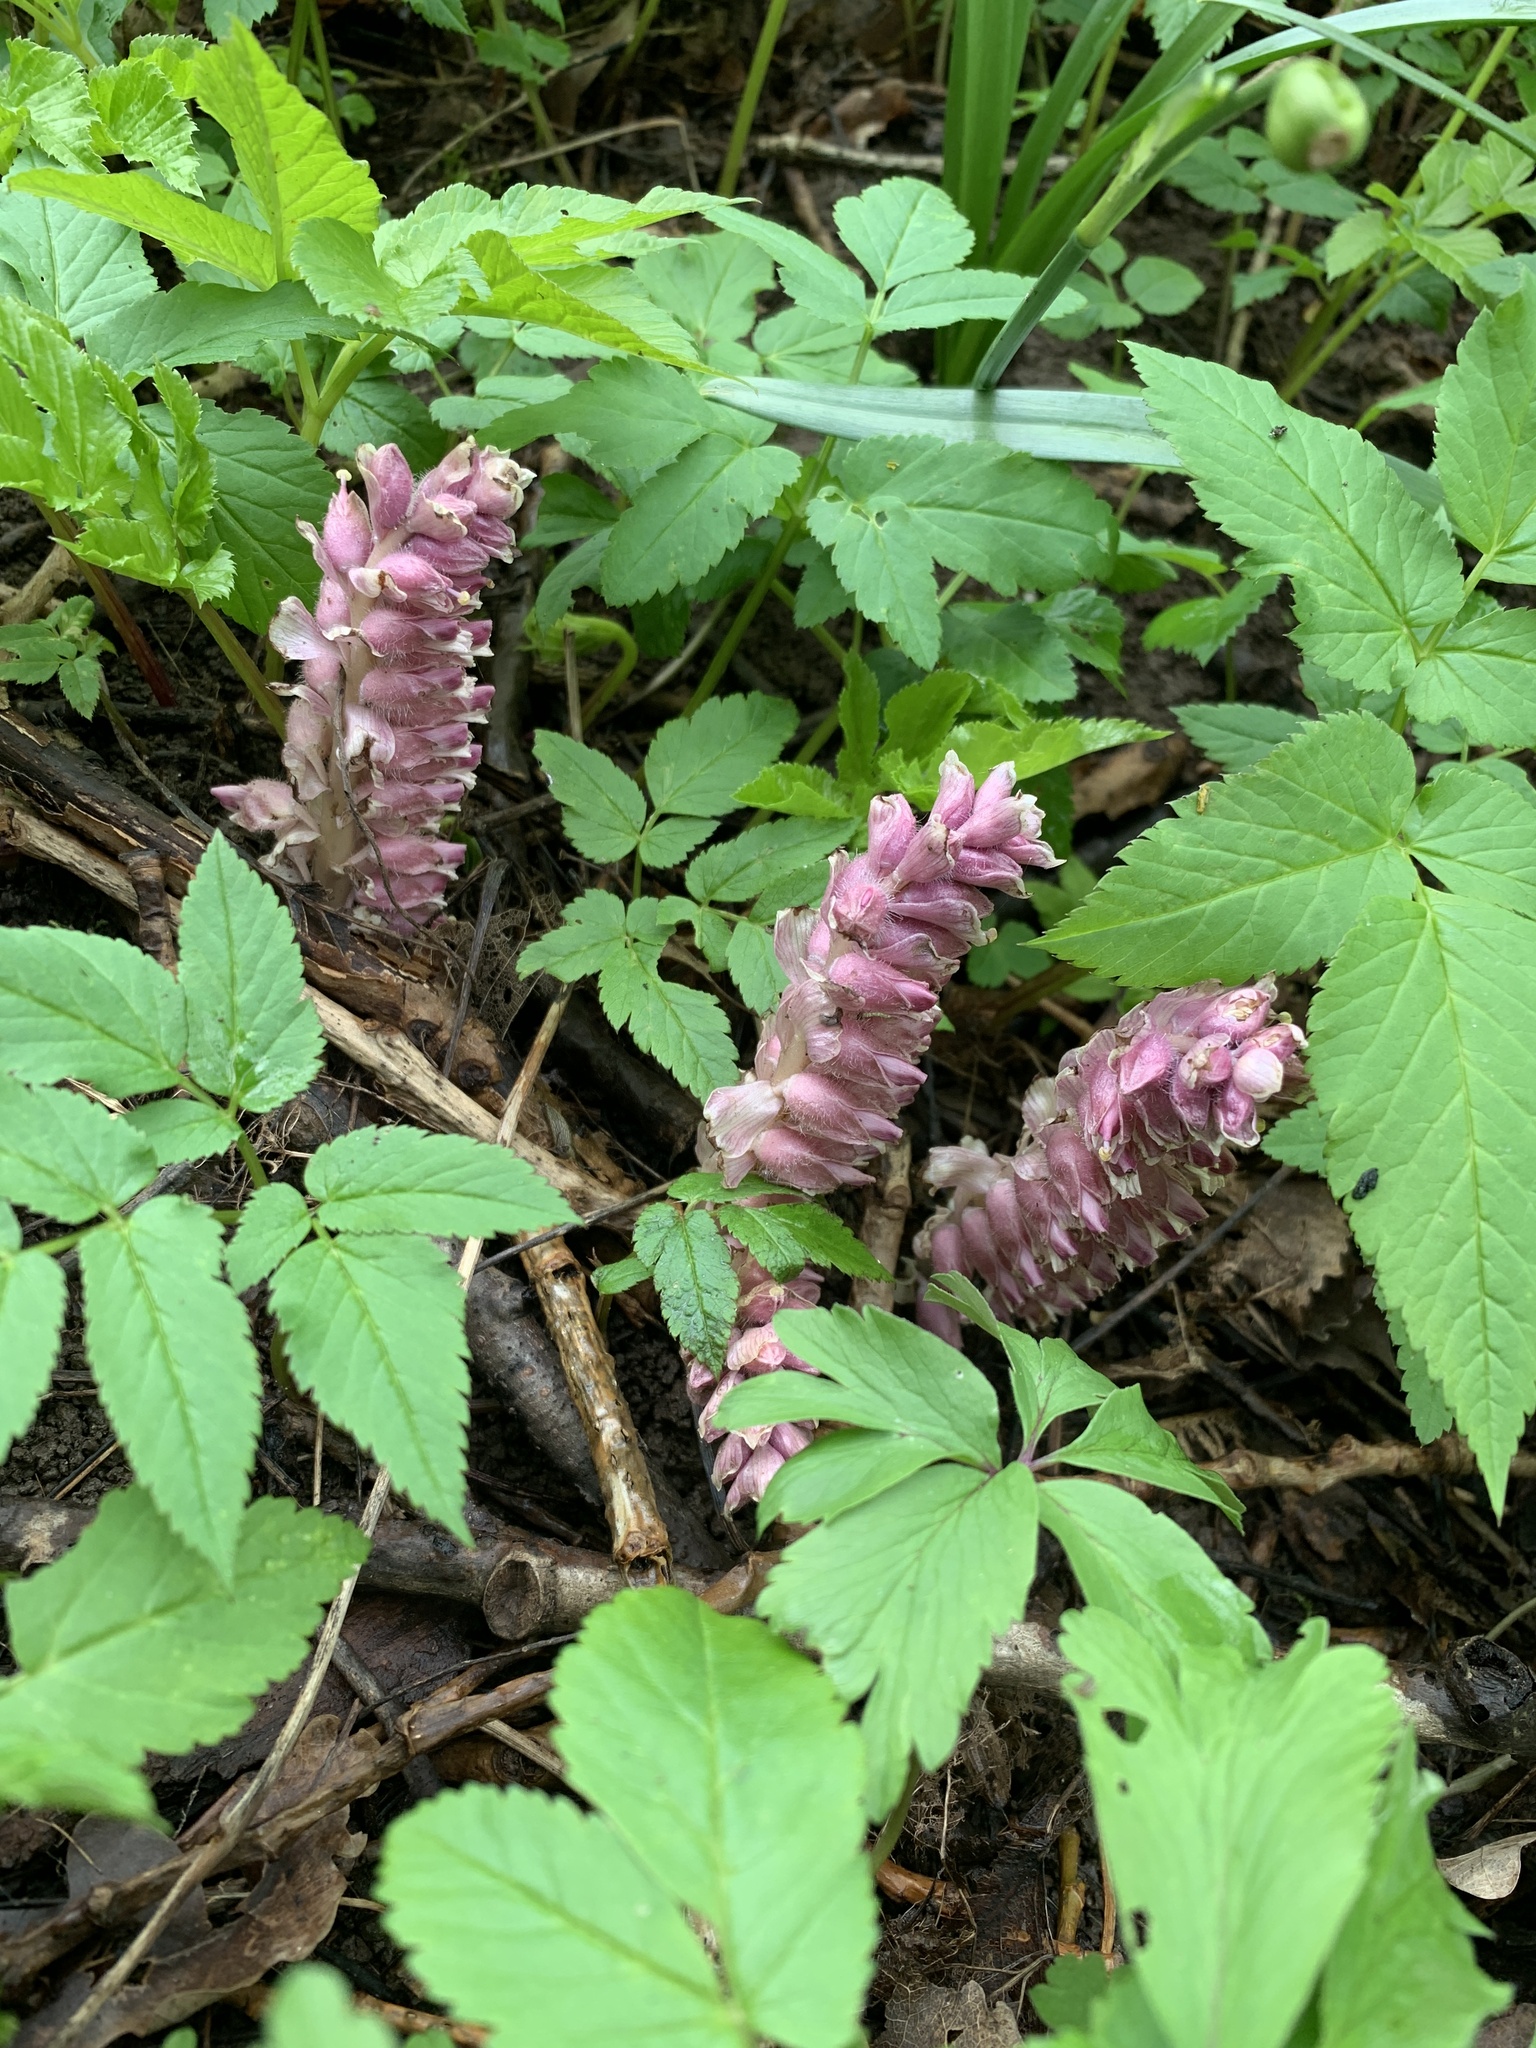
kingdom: Plantae
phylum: Tracheophyta
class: Magnoliopsida
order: Lamiales
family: Orobanchaceae
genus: Lathraea
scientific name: Lathraea squamaria
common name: Toothwort
